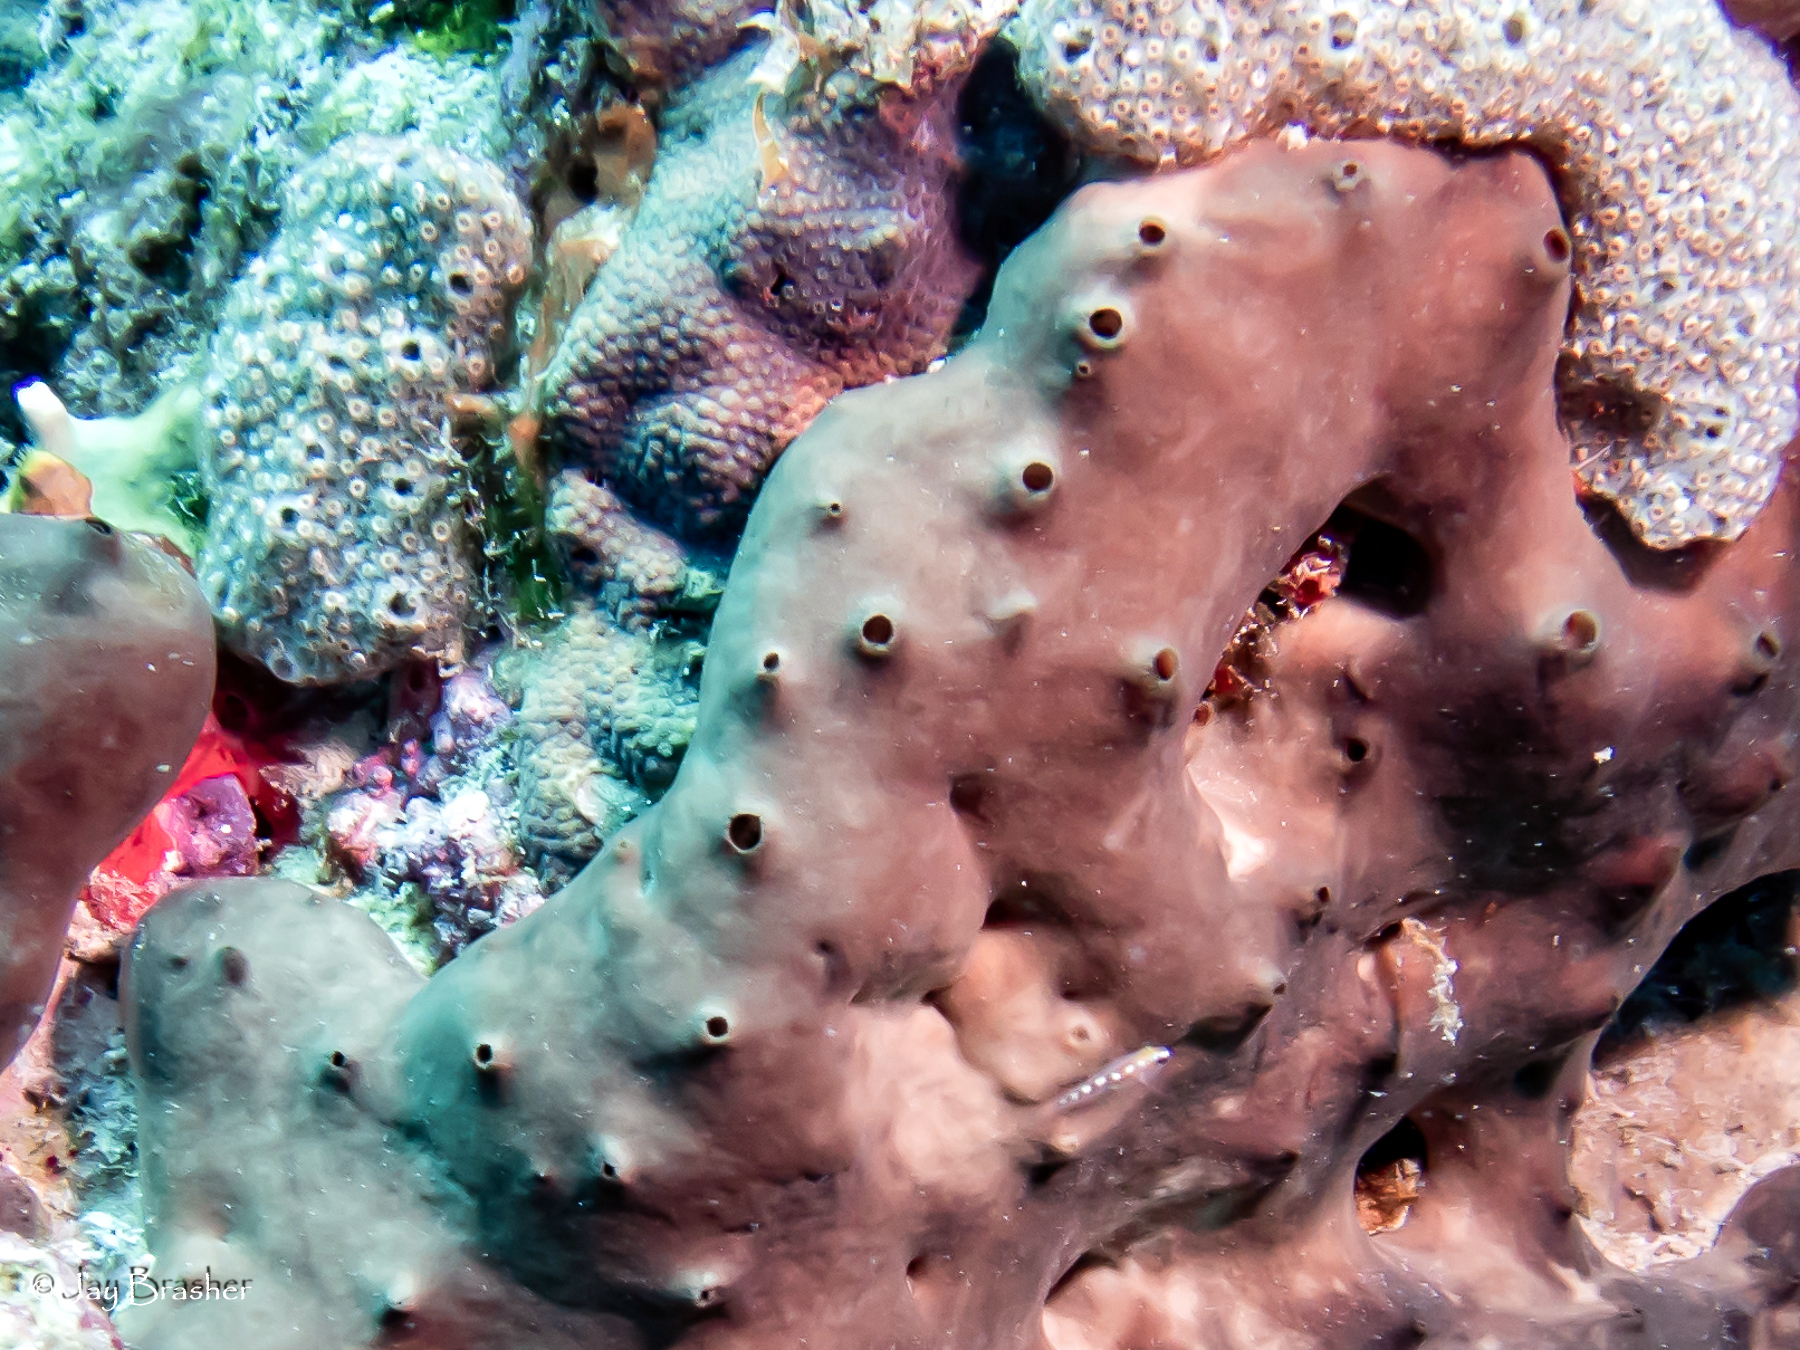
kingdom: Animalia
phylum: Porifera
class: Homoscleromorpha
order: Homosclerophorida
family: Plakinidae
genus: Plakortis
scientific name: Plakortis angulospiculatus
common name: Viscous sponge
